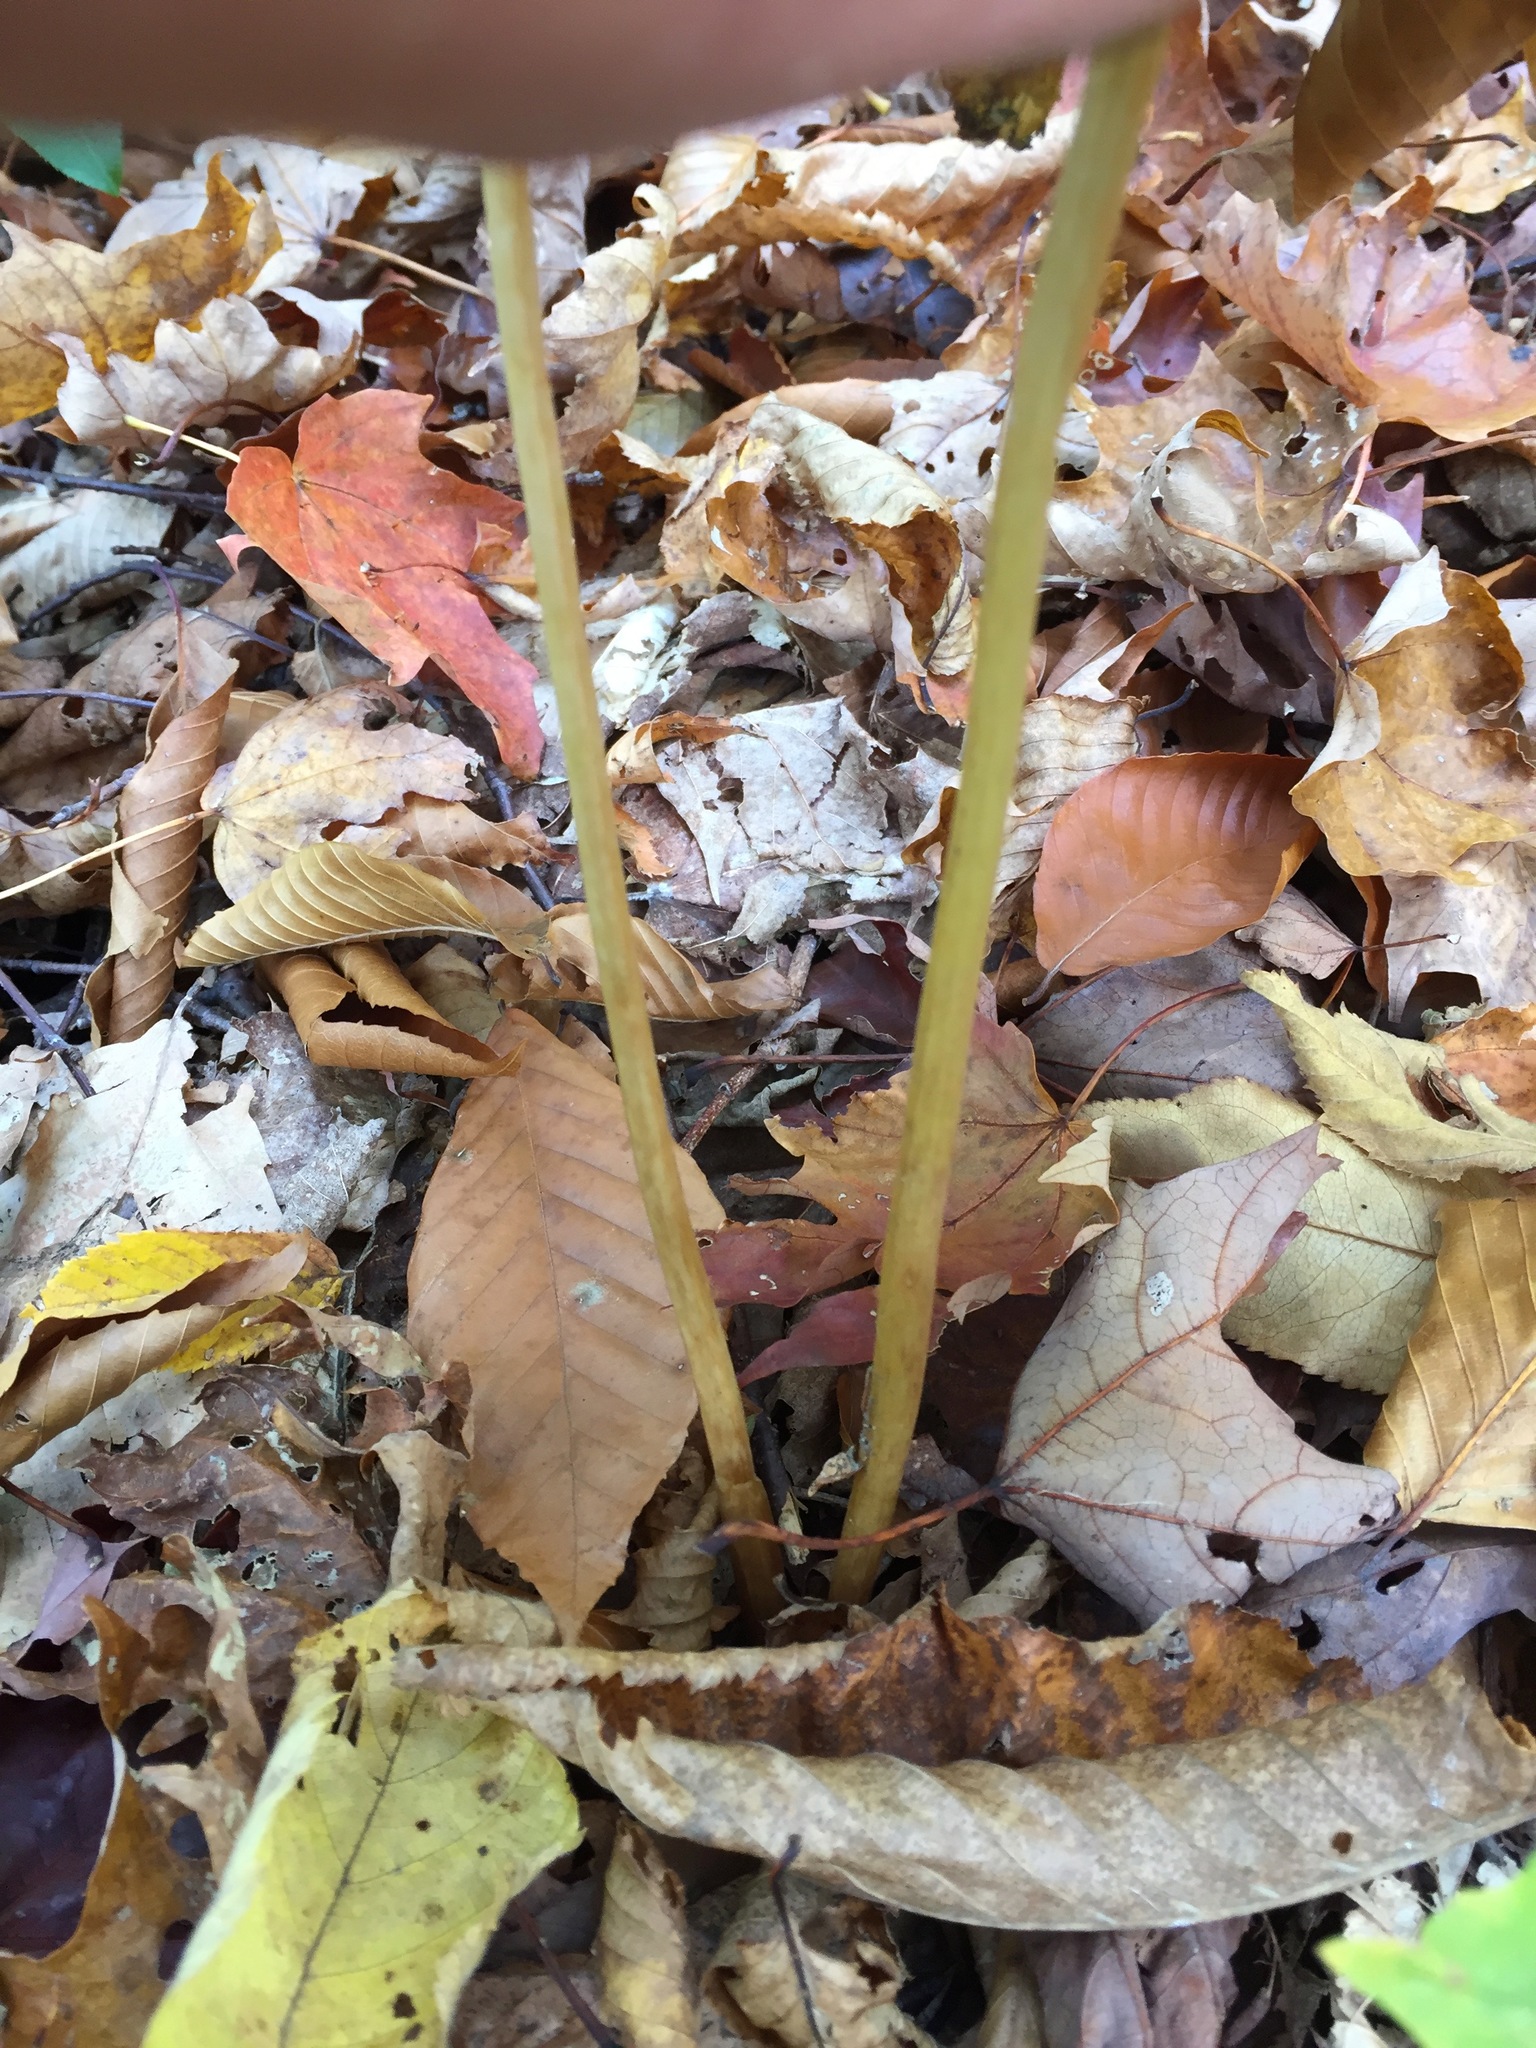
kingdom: Plantae
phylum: Tracheophyta
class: Liliopsida
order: Liliales
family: Melanthiaceae
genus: Trillium
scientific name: Trillium undulatum
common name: Paint trillium
